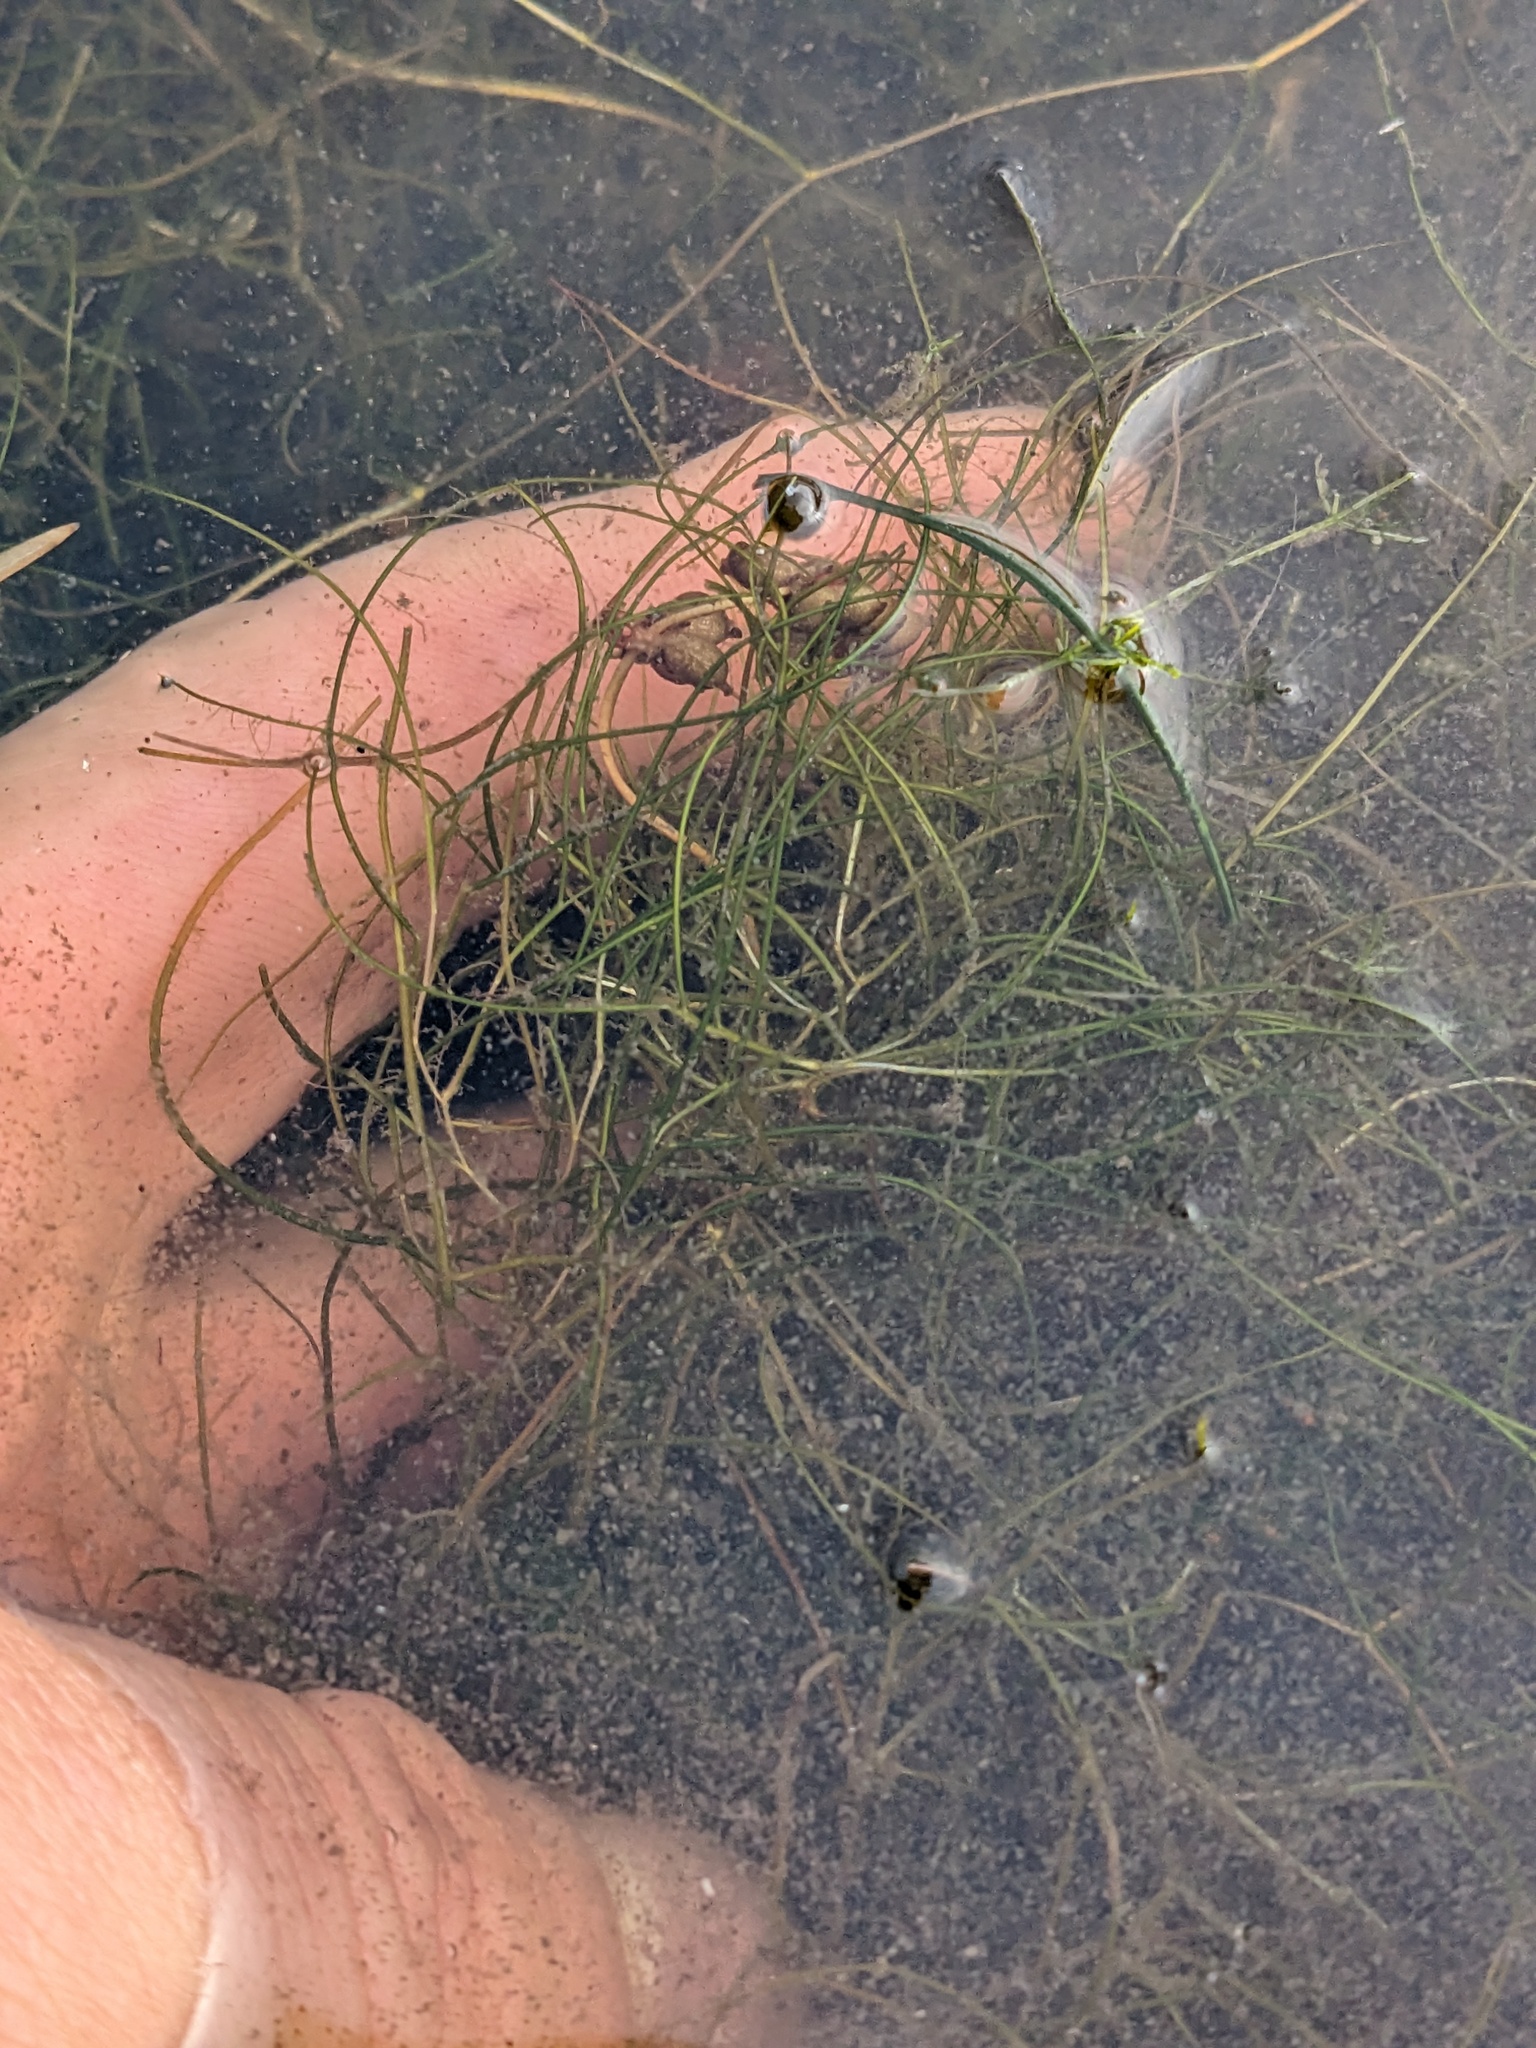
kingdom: Plantae
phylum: Tracheophyta
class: Liliopsida
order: Alismatales
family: Potamogetonaceae
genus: Stuckenia
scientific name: Stuckenia pectinata
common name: Sago pondweed
